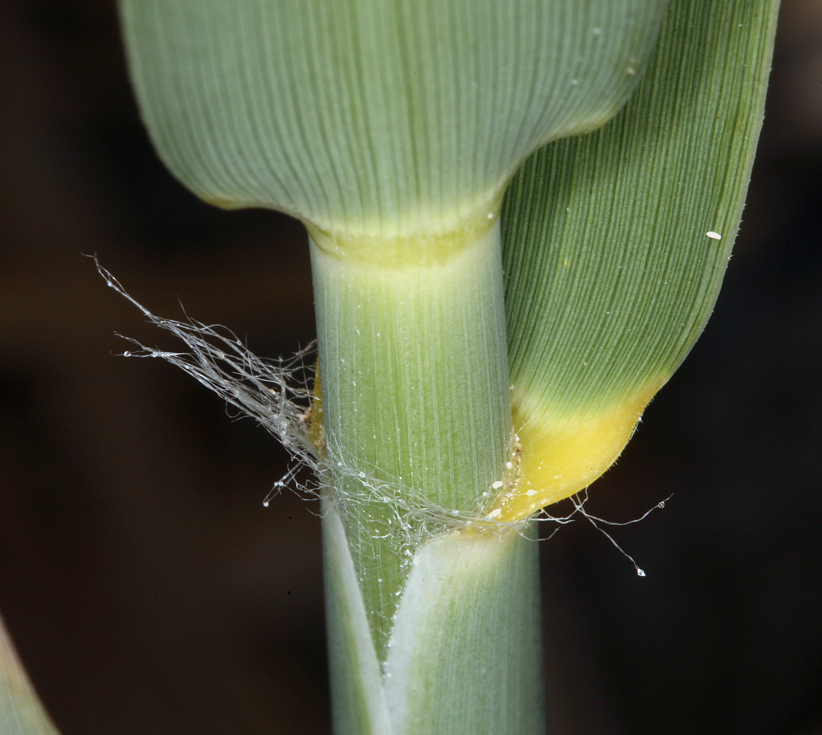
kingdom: Plantae
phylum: Tracheophyta
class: Liliopsida
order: Poales
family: Poaceae
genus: Phragmites
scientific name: Phragmites australis
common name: Common reed
